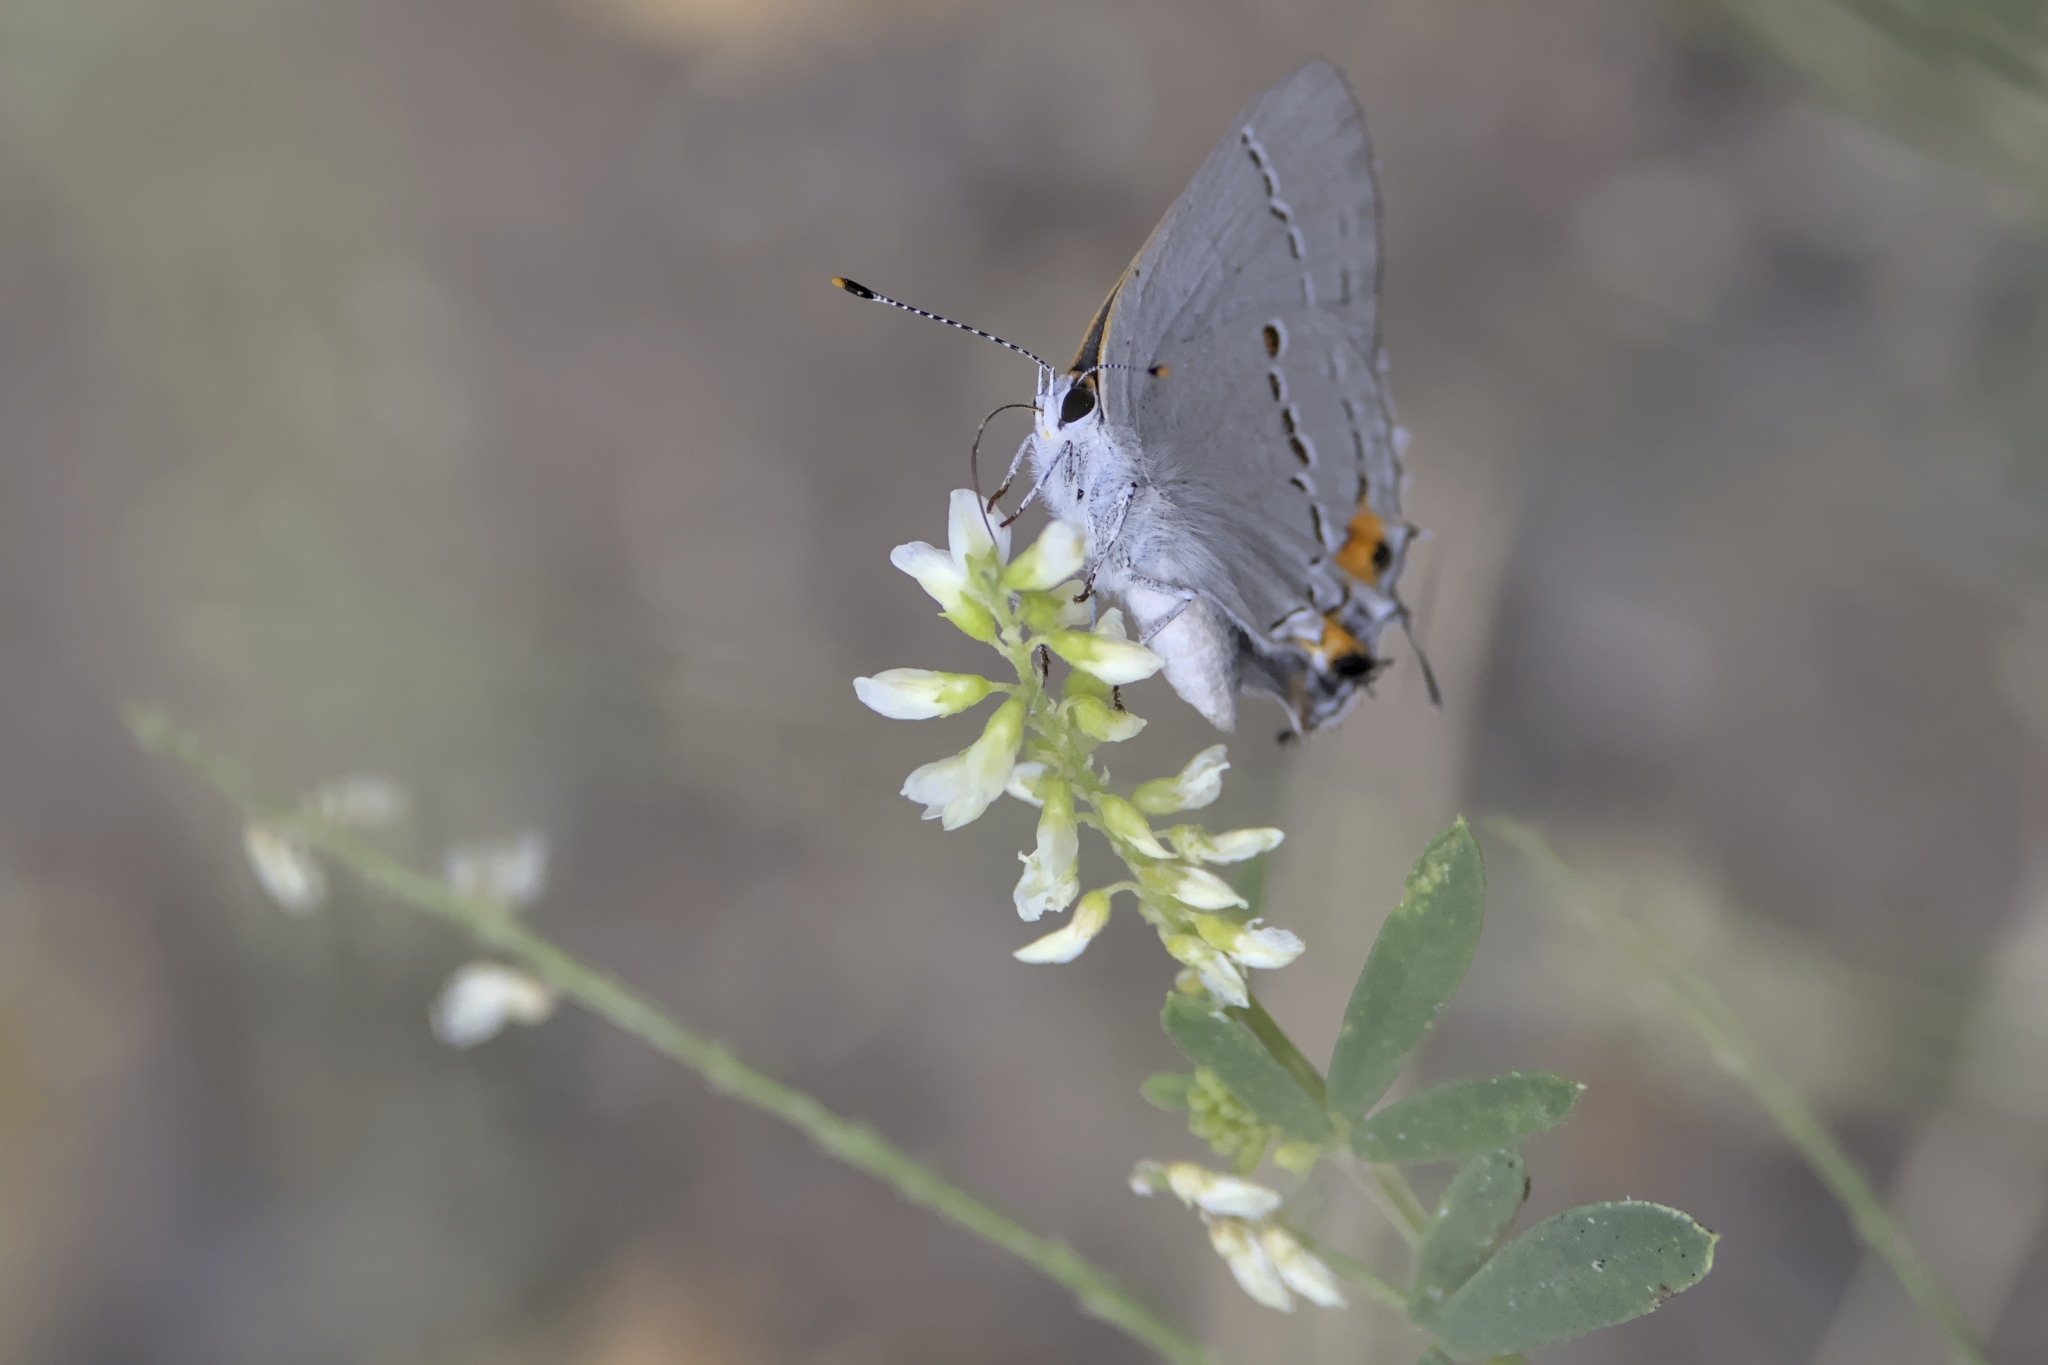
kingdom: Animalia
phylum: Arthropoda
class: Insecta
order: Lepidoptera
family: Lycaenidae
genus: Strymon
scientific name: Strymon melinus
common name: Gray hairstreak
